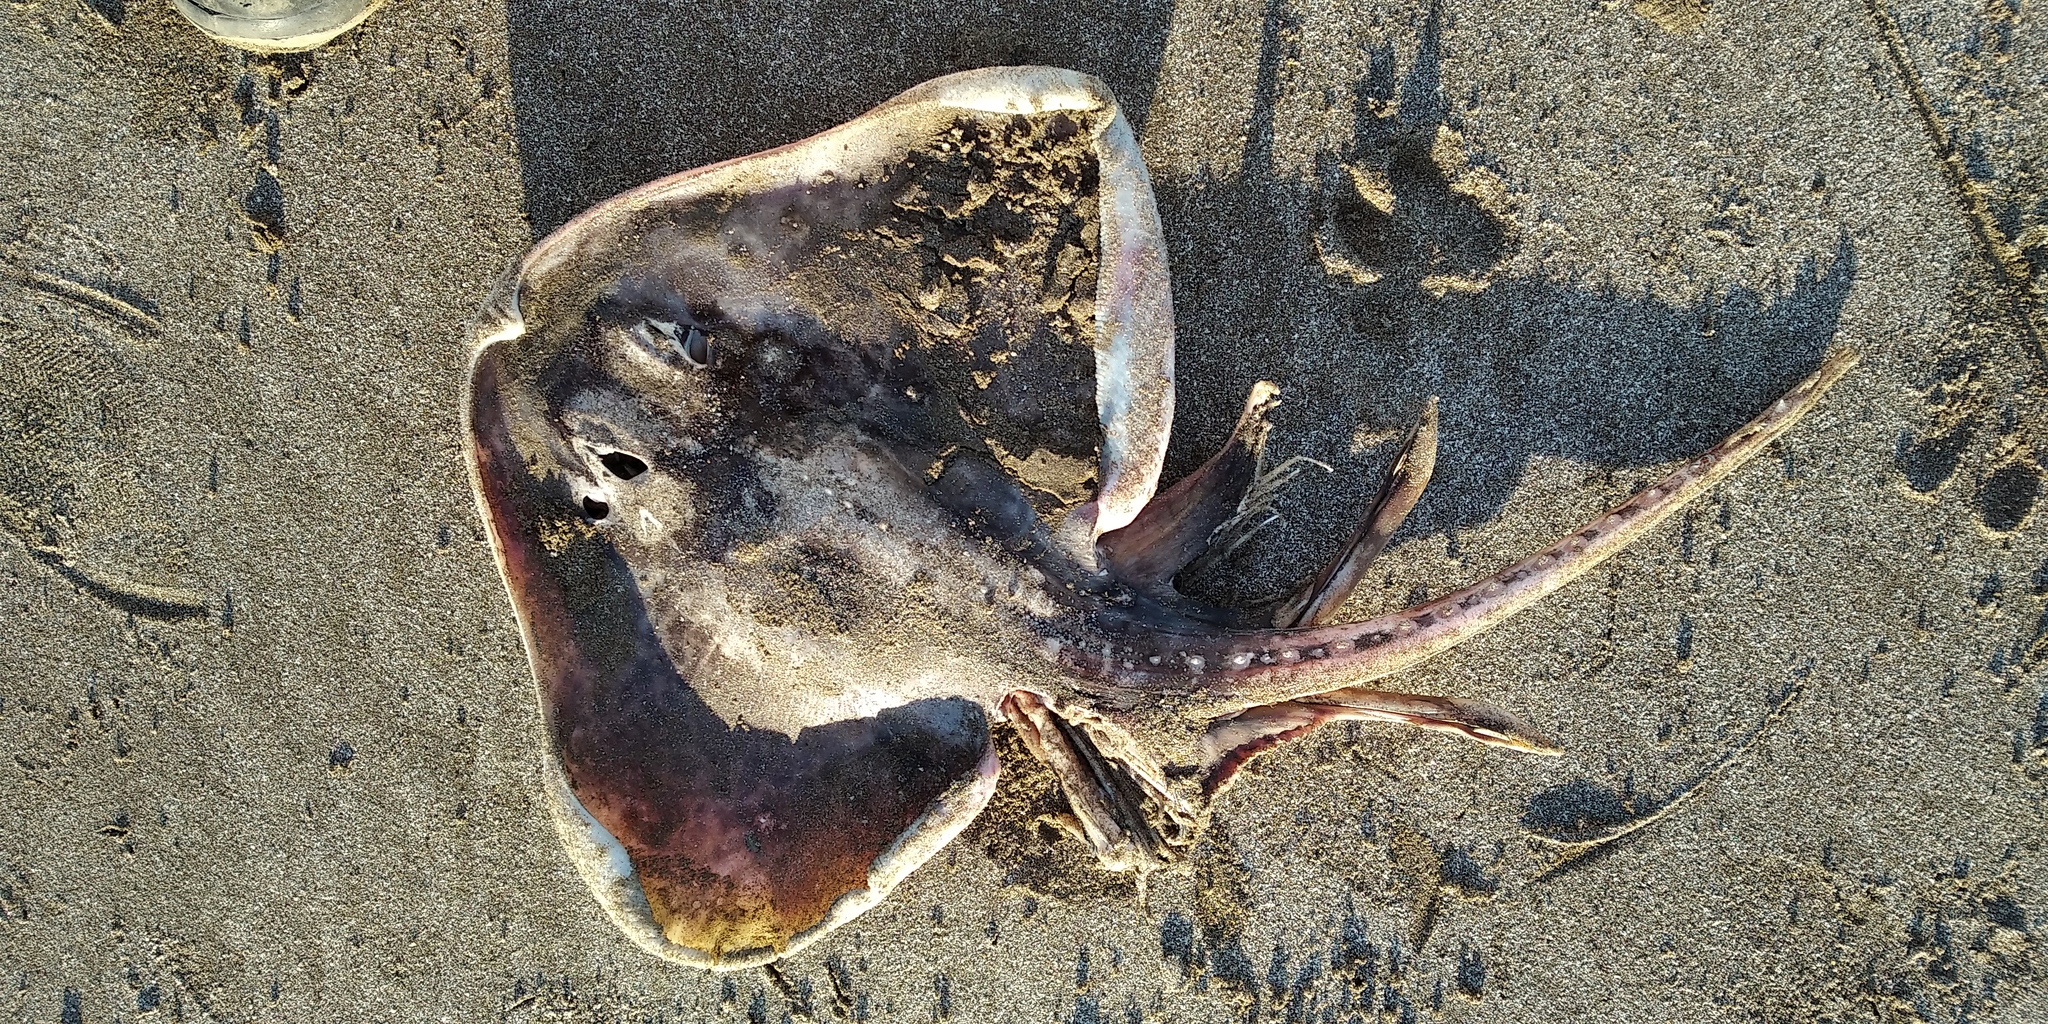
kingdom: Animalia
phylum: Chordata
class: Elasmobranchii
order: Rajiformes
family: Arhynchobatidae
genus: Sympterygia
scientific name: Sympterygia bonapartii
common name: Smallnose fanskate
